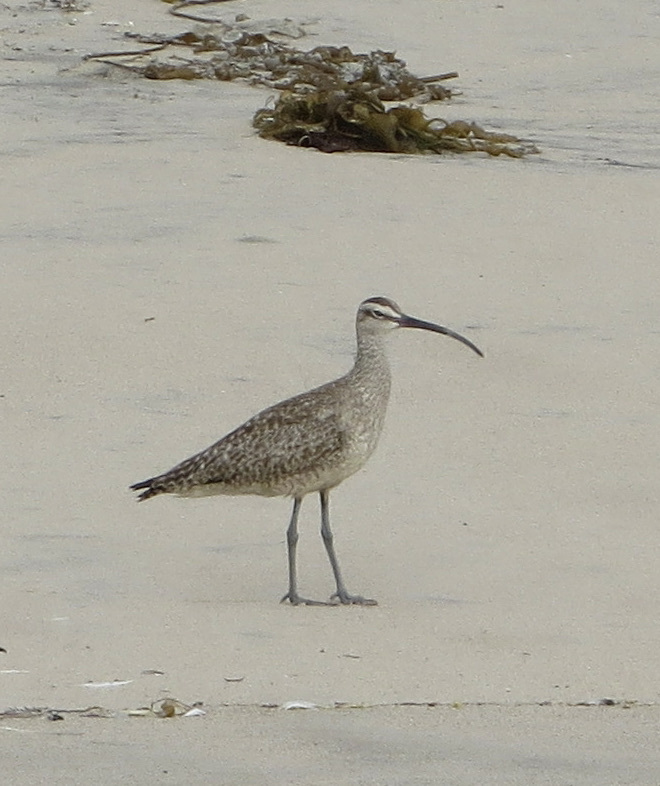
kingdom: Animalia
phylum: Chordata
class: Aves
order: Charadriiformes
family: Scolopacidae
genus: Numenius
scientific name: Numenius phaeopus
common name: Whimbrel
